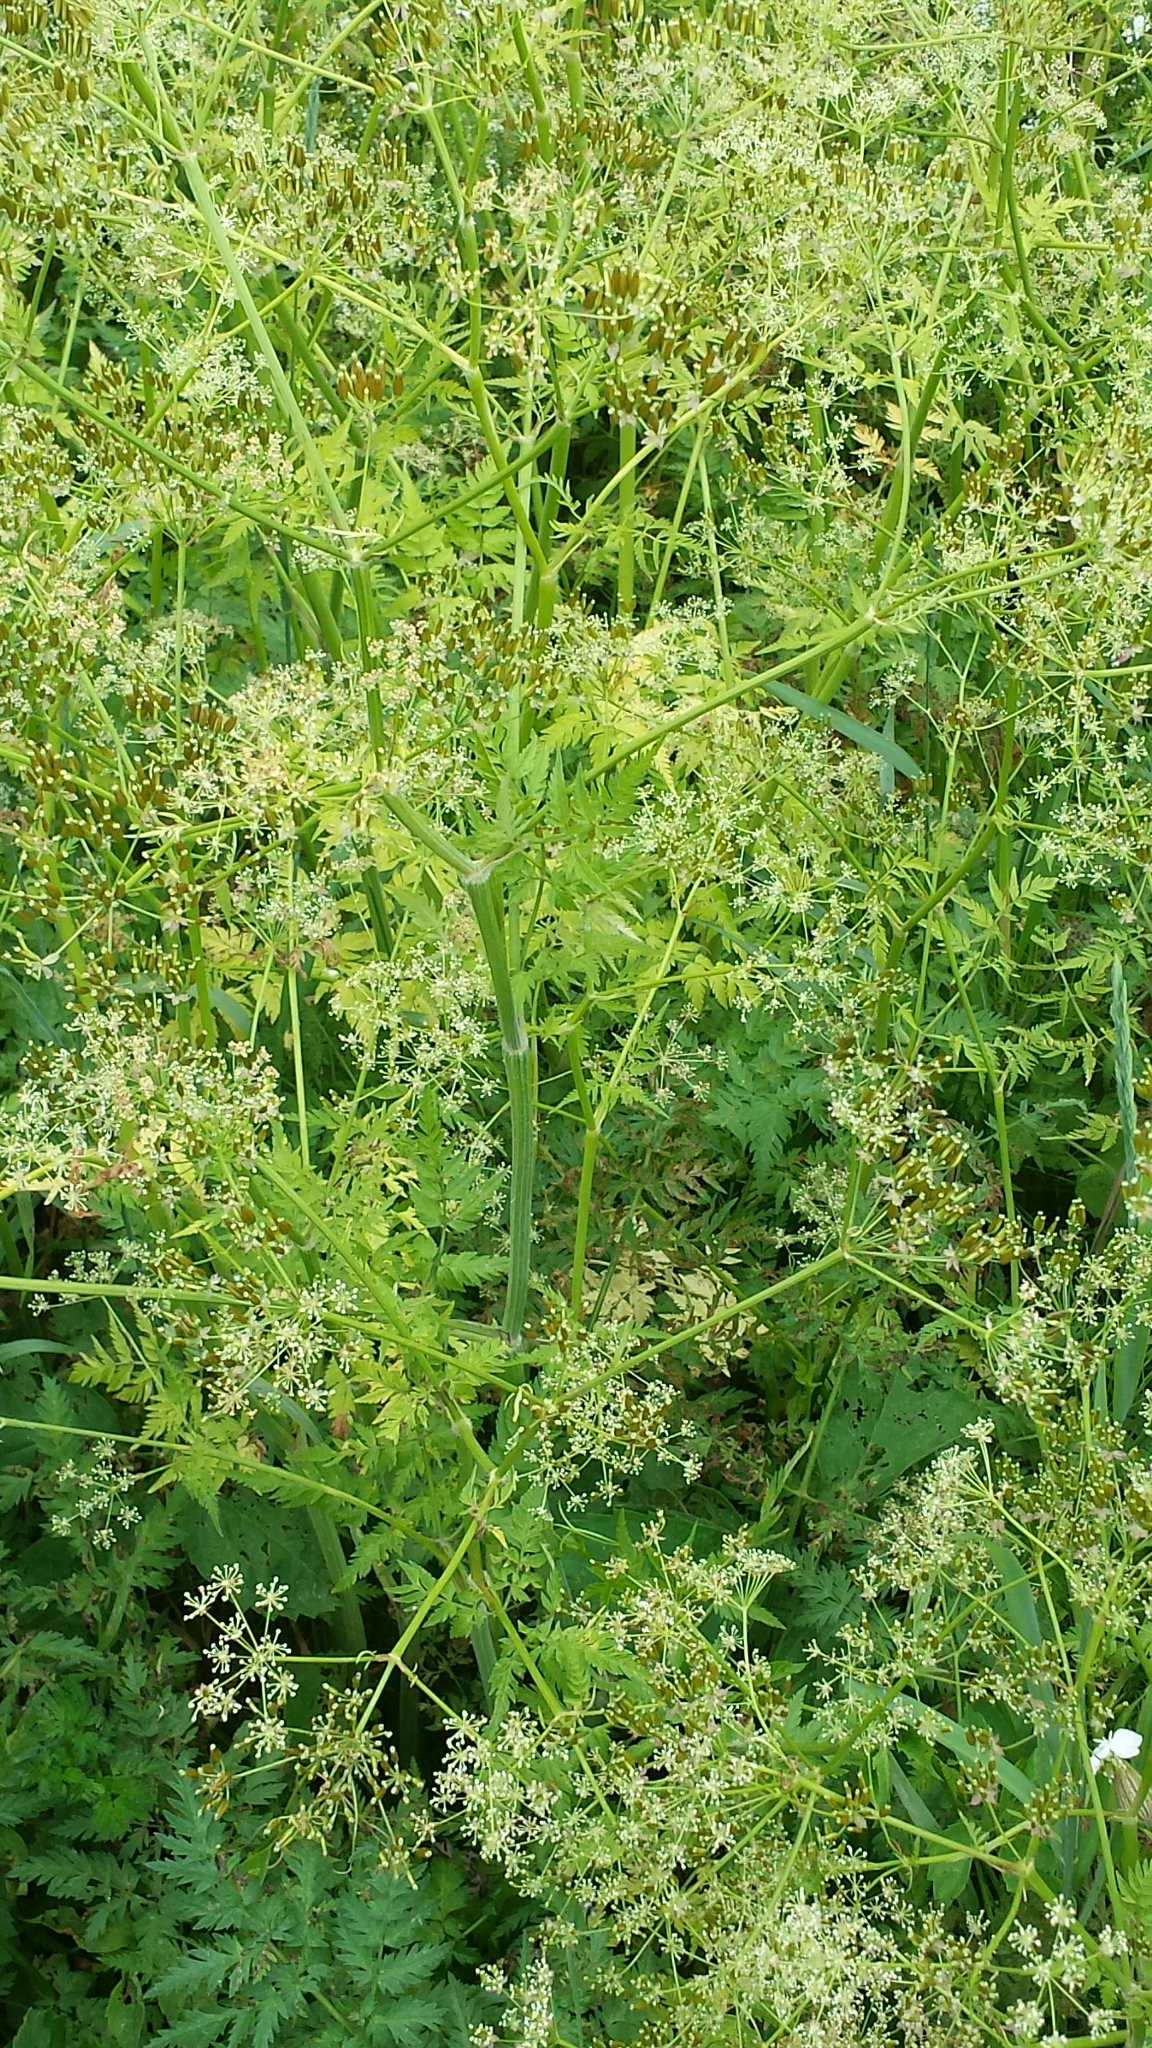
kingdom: Plantae
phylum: Tracheophyta
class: Magnoliopsida
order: Apiales
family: Apiaceae
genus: Anthriscus
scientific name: Anthriscus sylvestris
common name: Cow parsley
